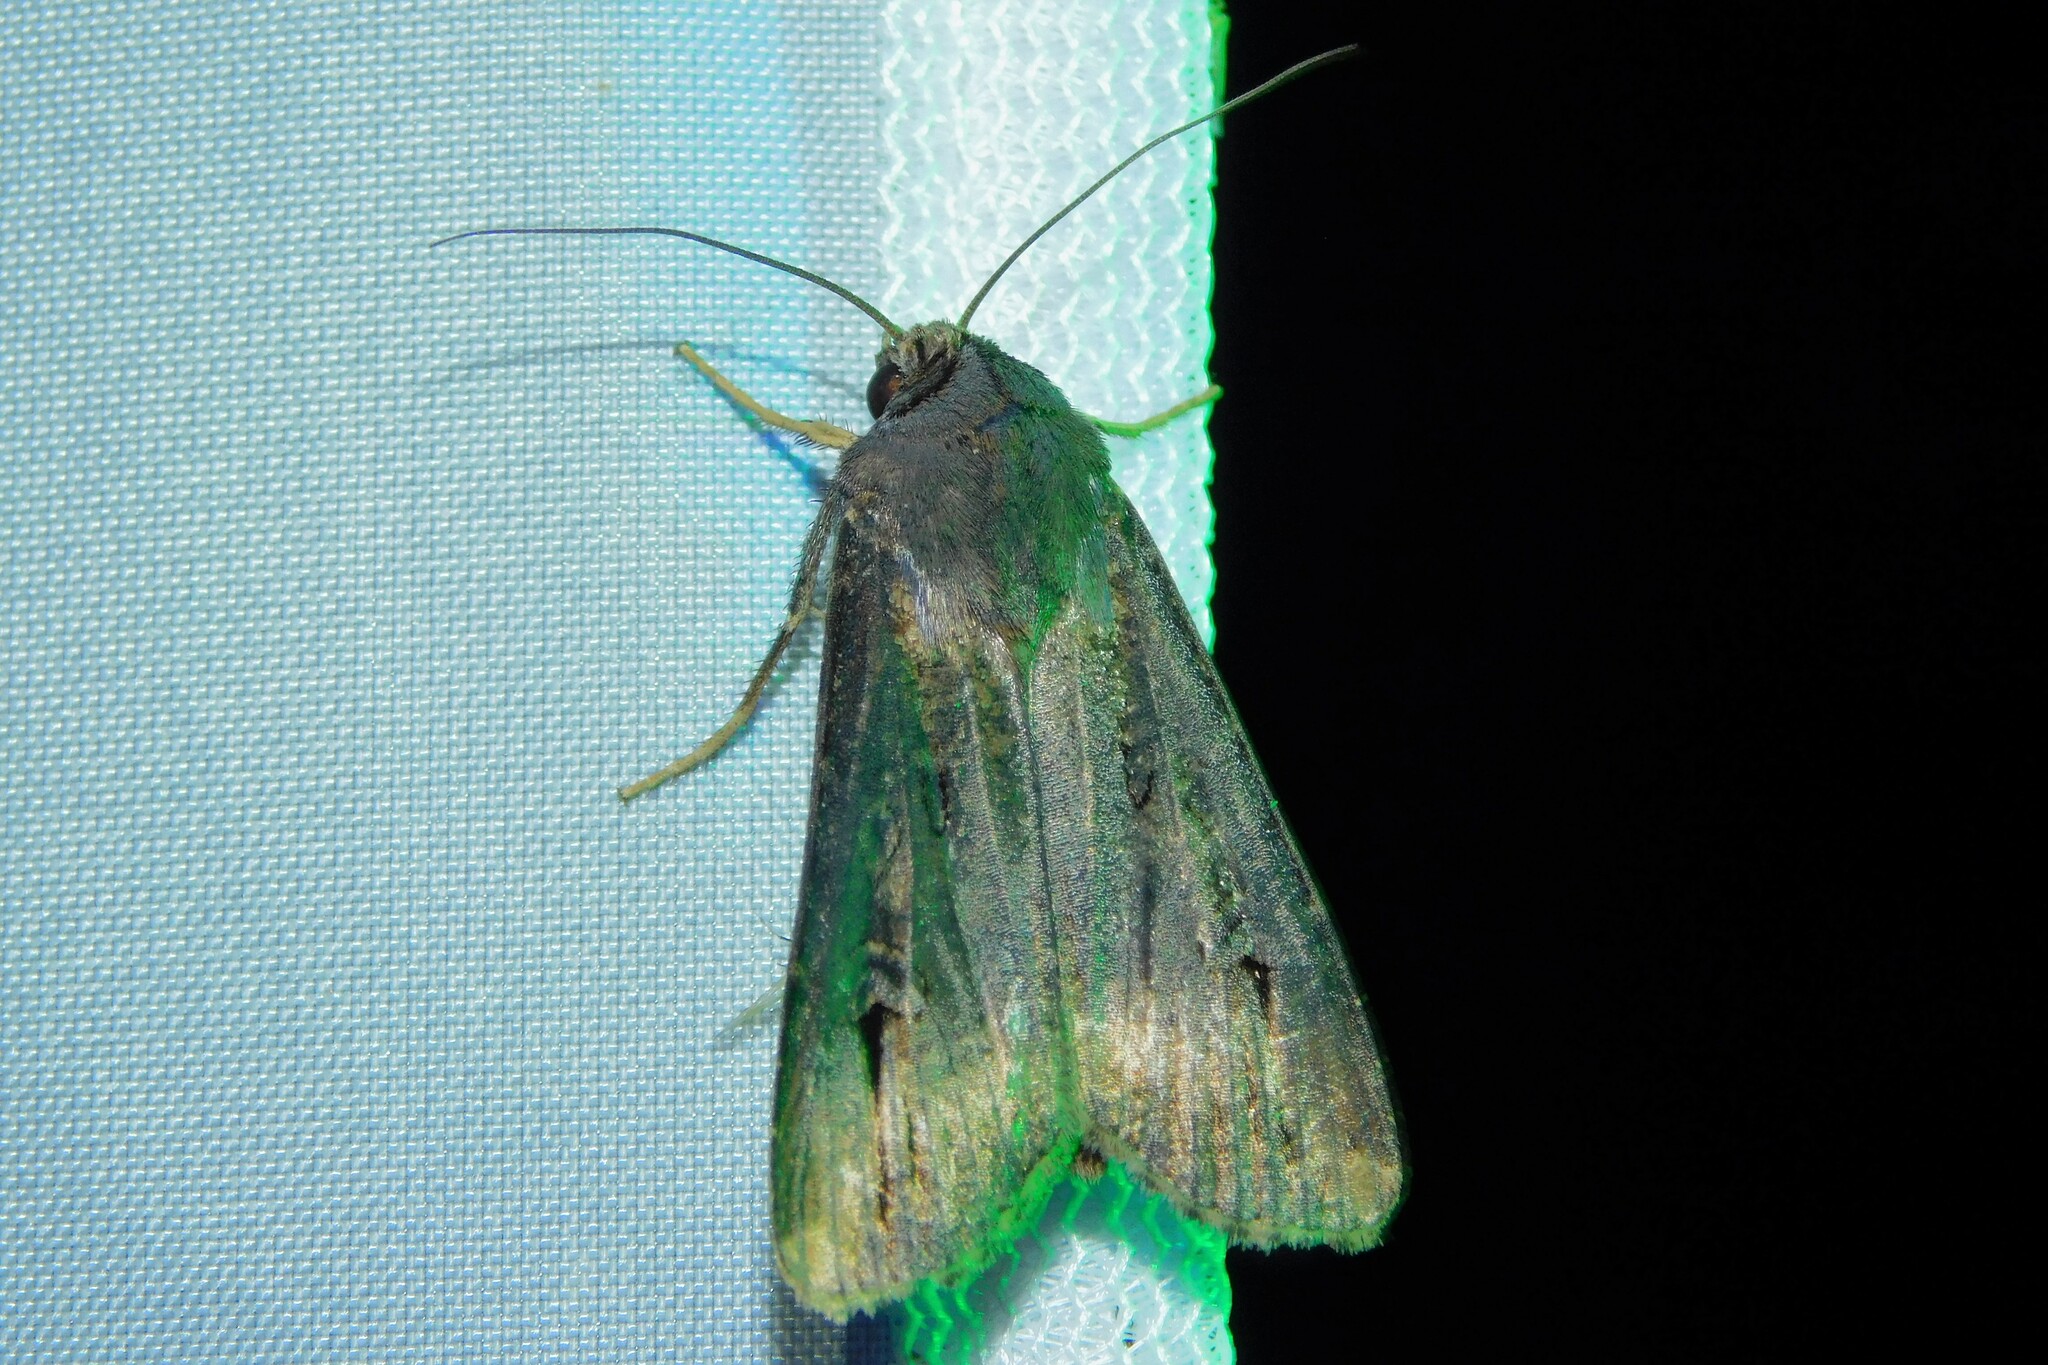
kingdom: Animalia
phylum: Arthropoda
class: Insecta
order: Lepidoptera
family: Noctuidae
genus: Agrotis
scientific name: Agrotis ipsilon
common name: Dark sword-grass
